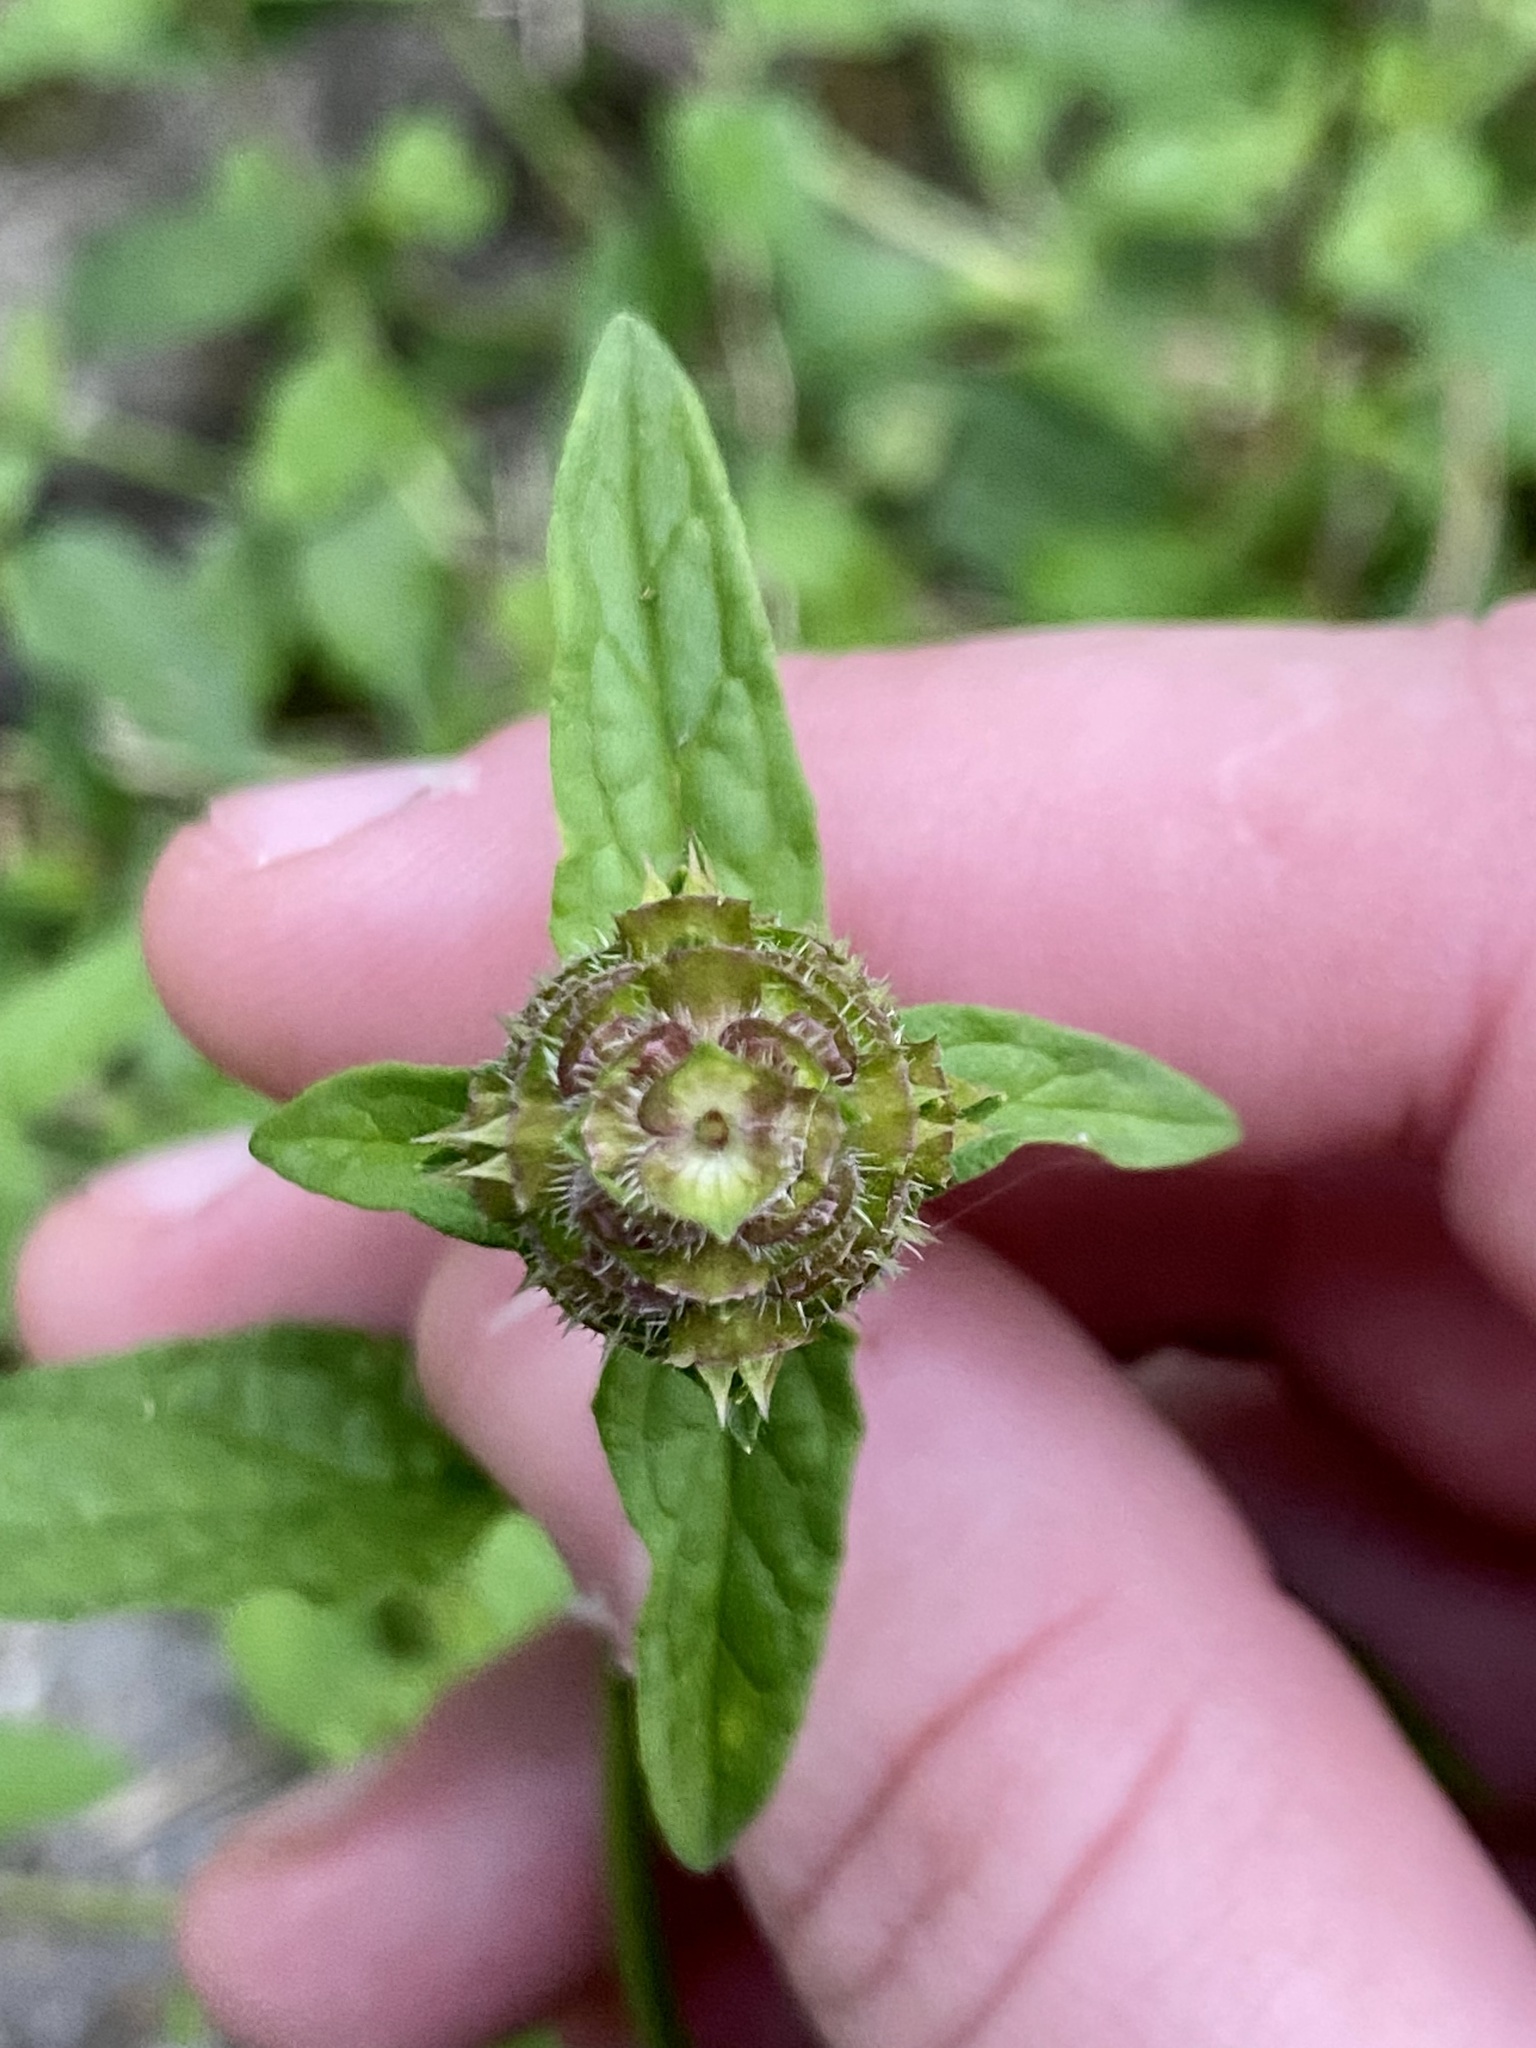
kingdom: Plantae
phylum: Tracheophyta
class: Magnoliopsida
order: Lamiales
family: Lamiaceae
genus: Prunella
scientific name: Prunella vulgaris
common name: Heal-all
